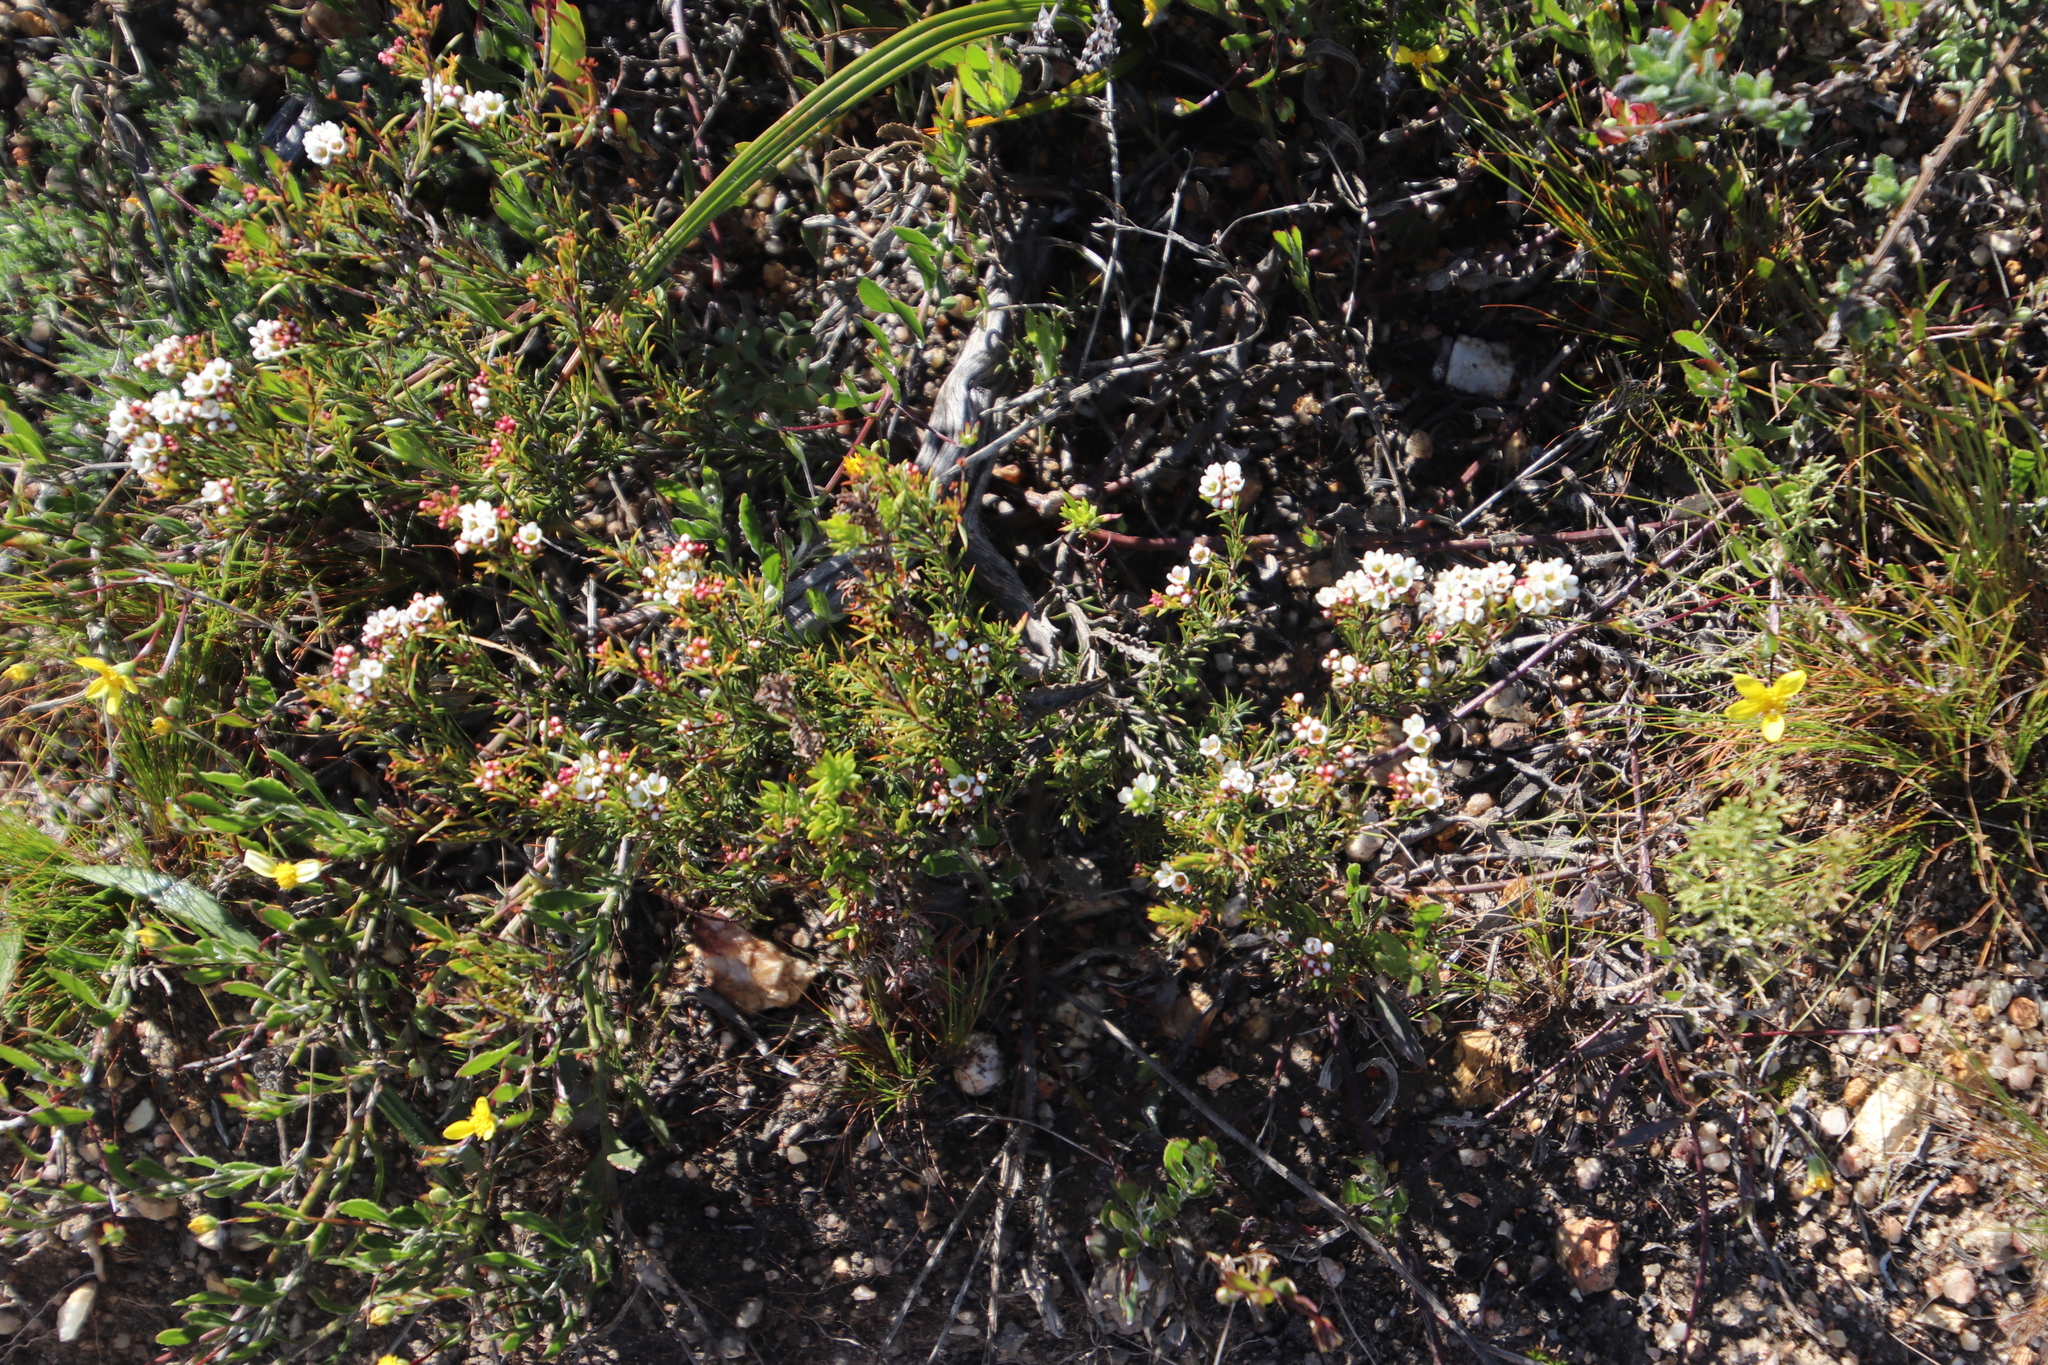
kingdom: Plantae
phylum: Tracheophyta
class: Magnoliopsida
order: Sapindales
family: Rutaceae
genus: Diosma
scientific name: Diosma hirsuta
